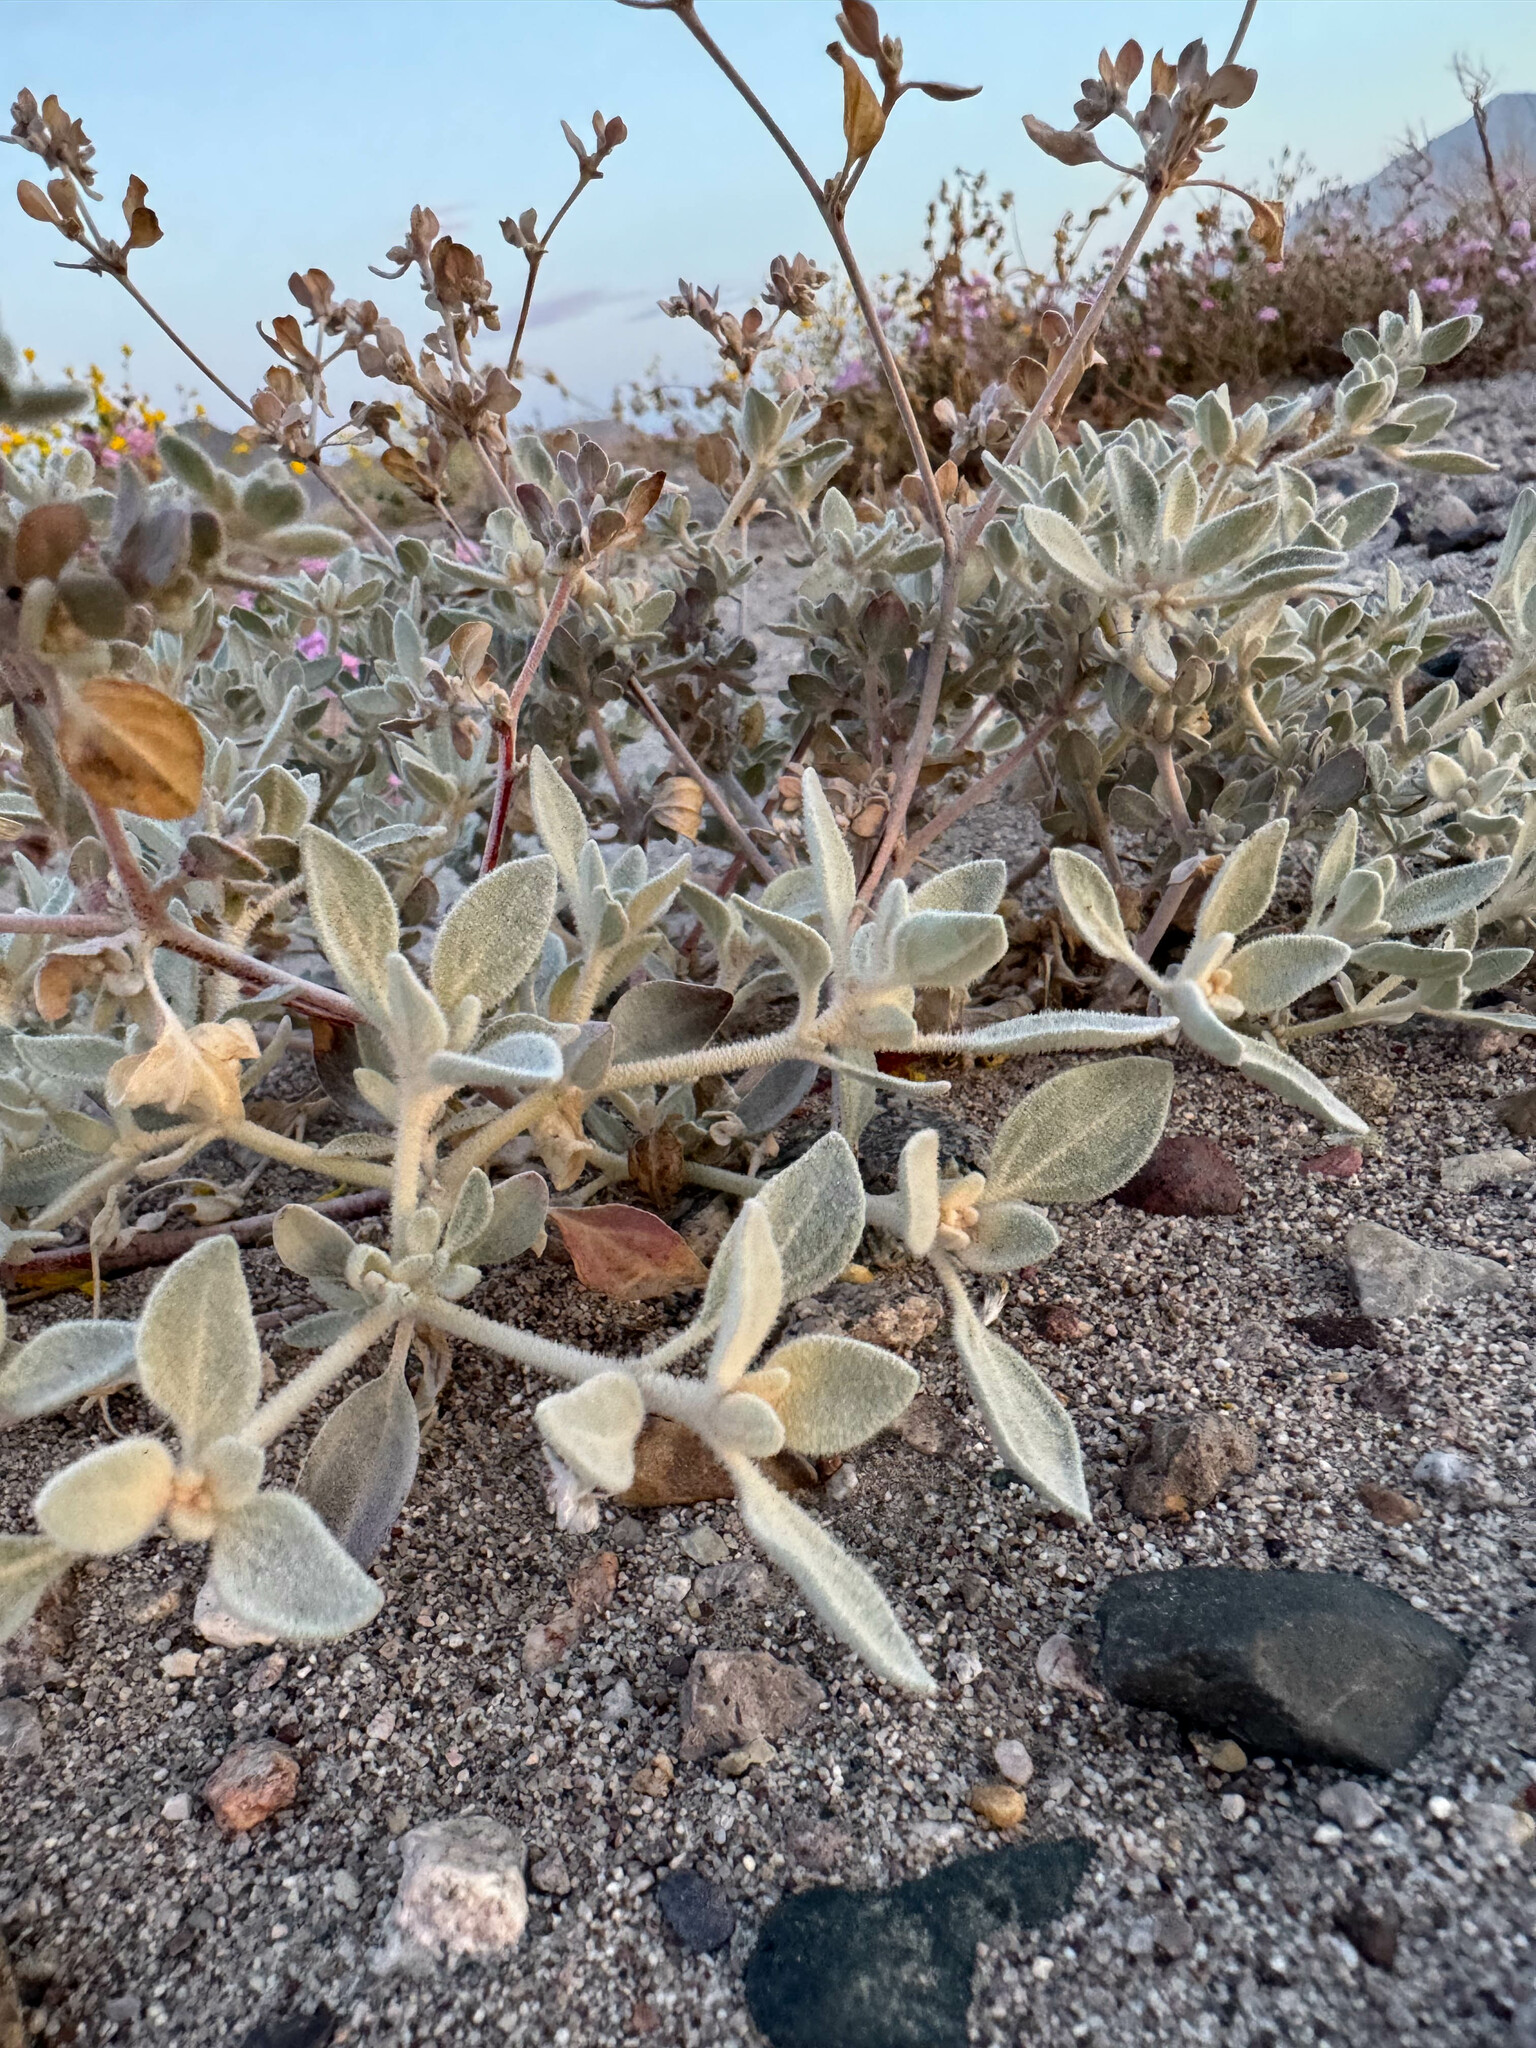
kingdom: Plantae
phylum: Tracheophyta
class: Magnoliopsida
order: Caryophyllales
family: Amaranthaceae
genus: Tidestromia
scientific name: Tidestromia suffruticosa
